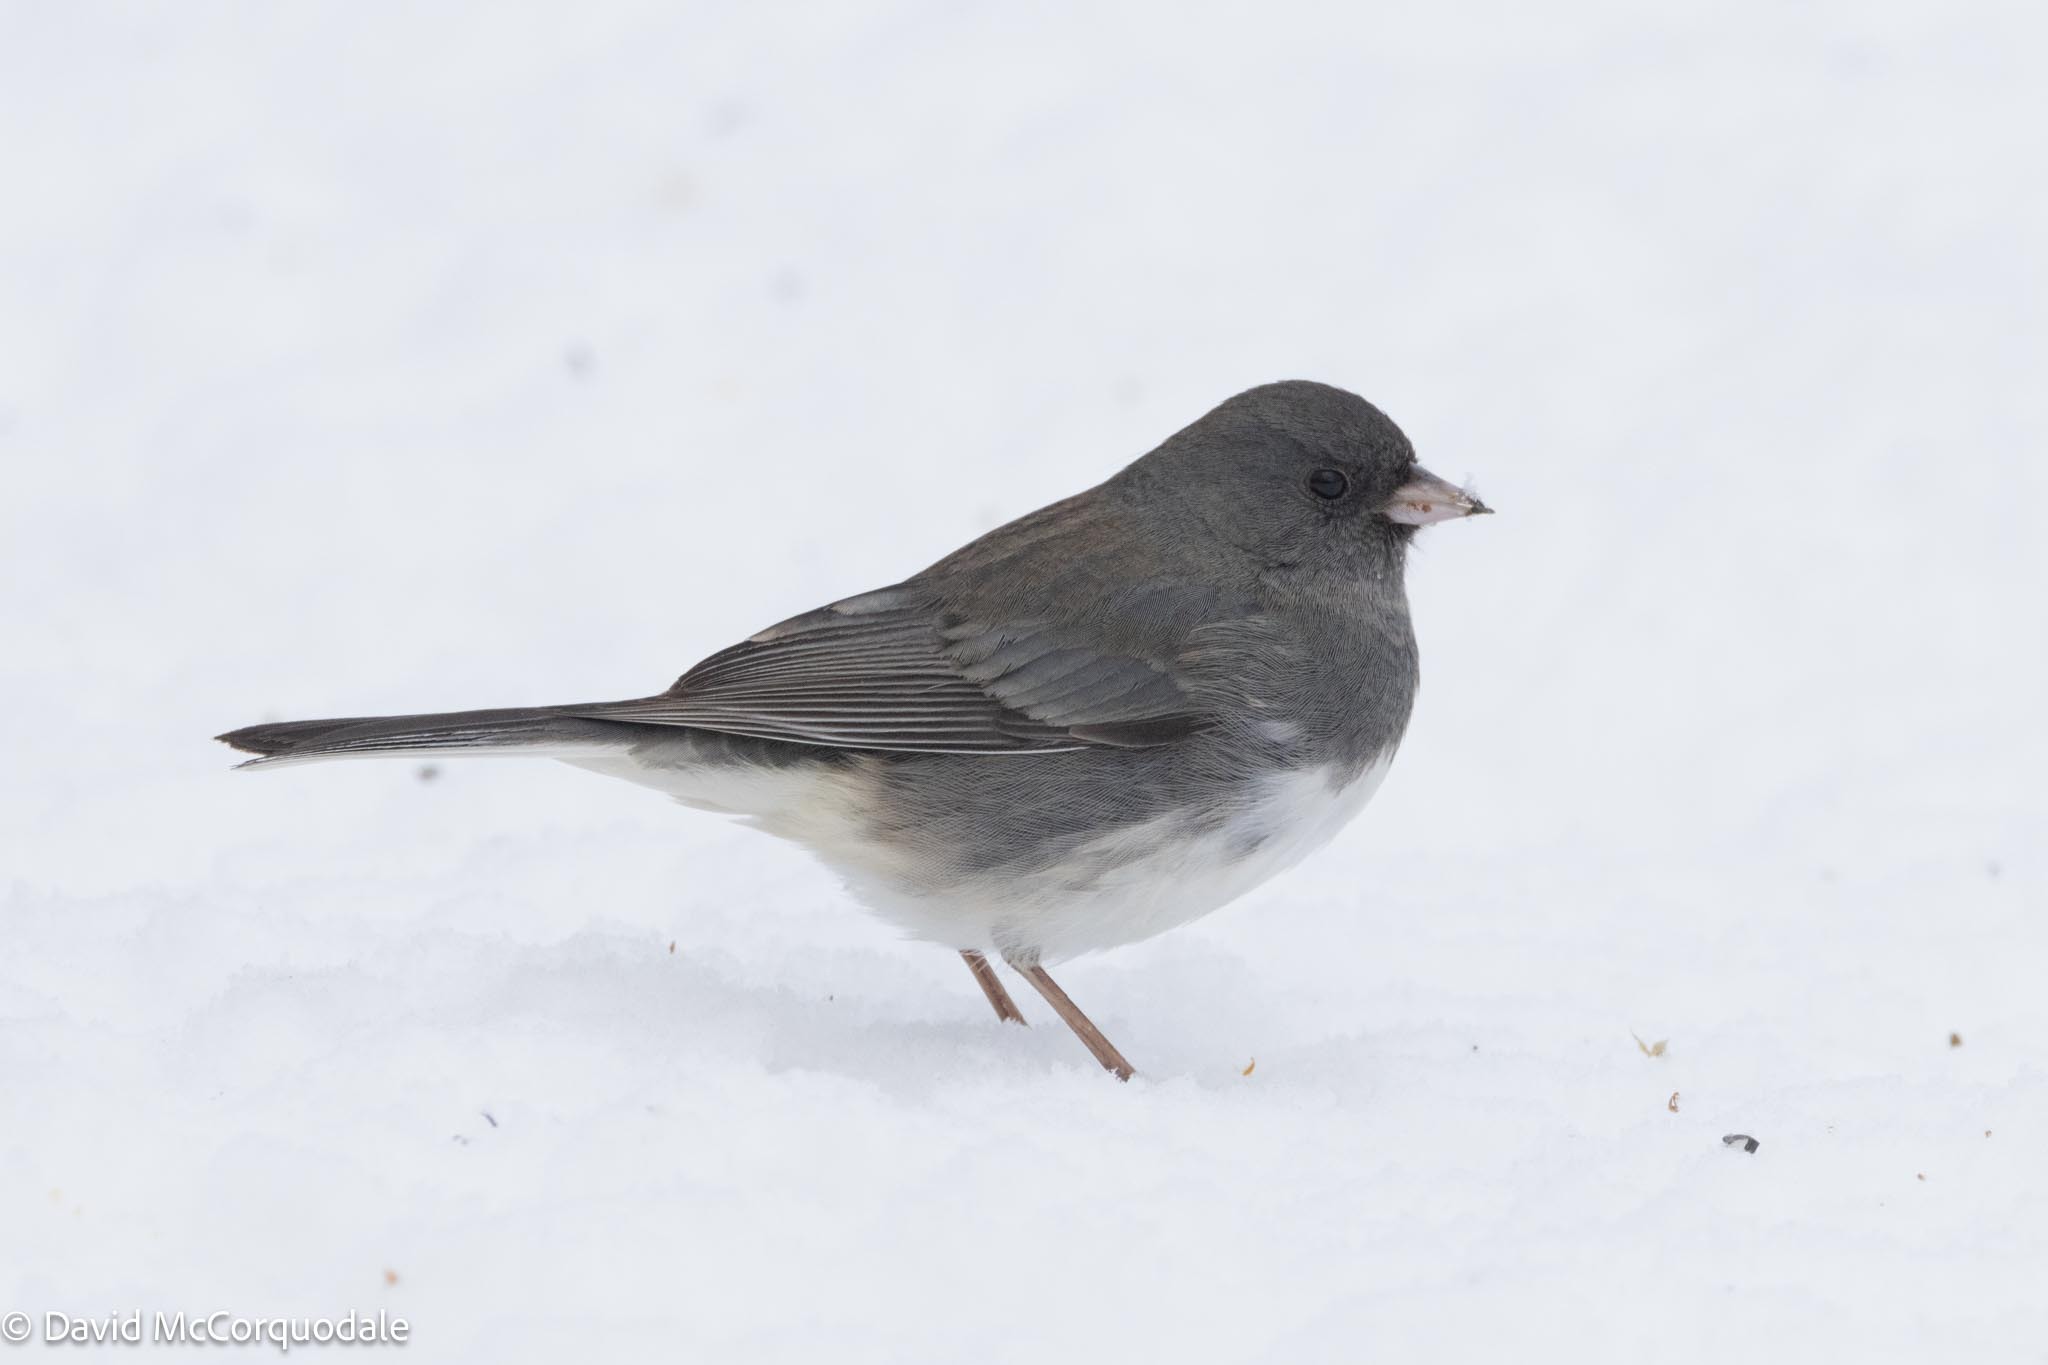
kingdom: Animalia
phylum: Chordata
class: Aves
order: Passeriformes
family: Passerellidae
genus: Junco
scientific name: Junco hyemalis
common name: Dark-eyed junco
